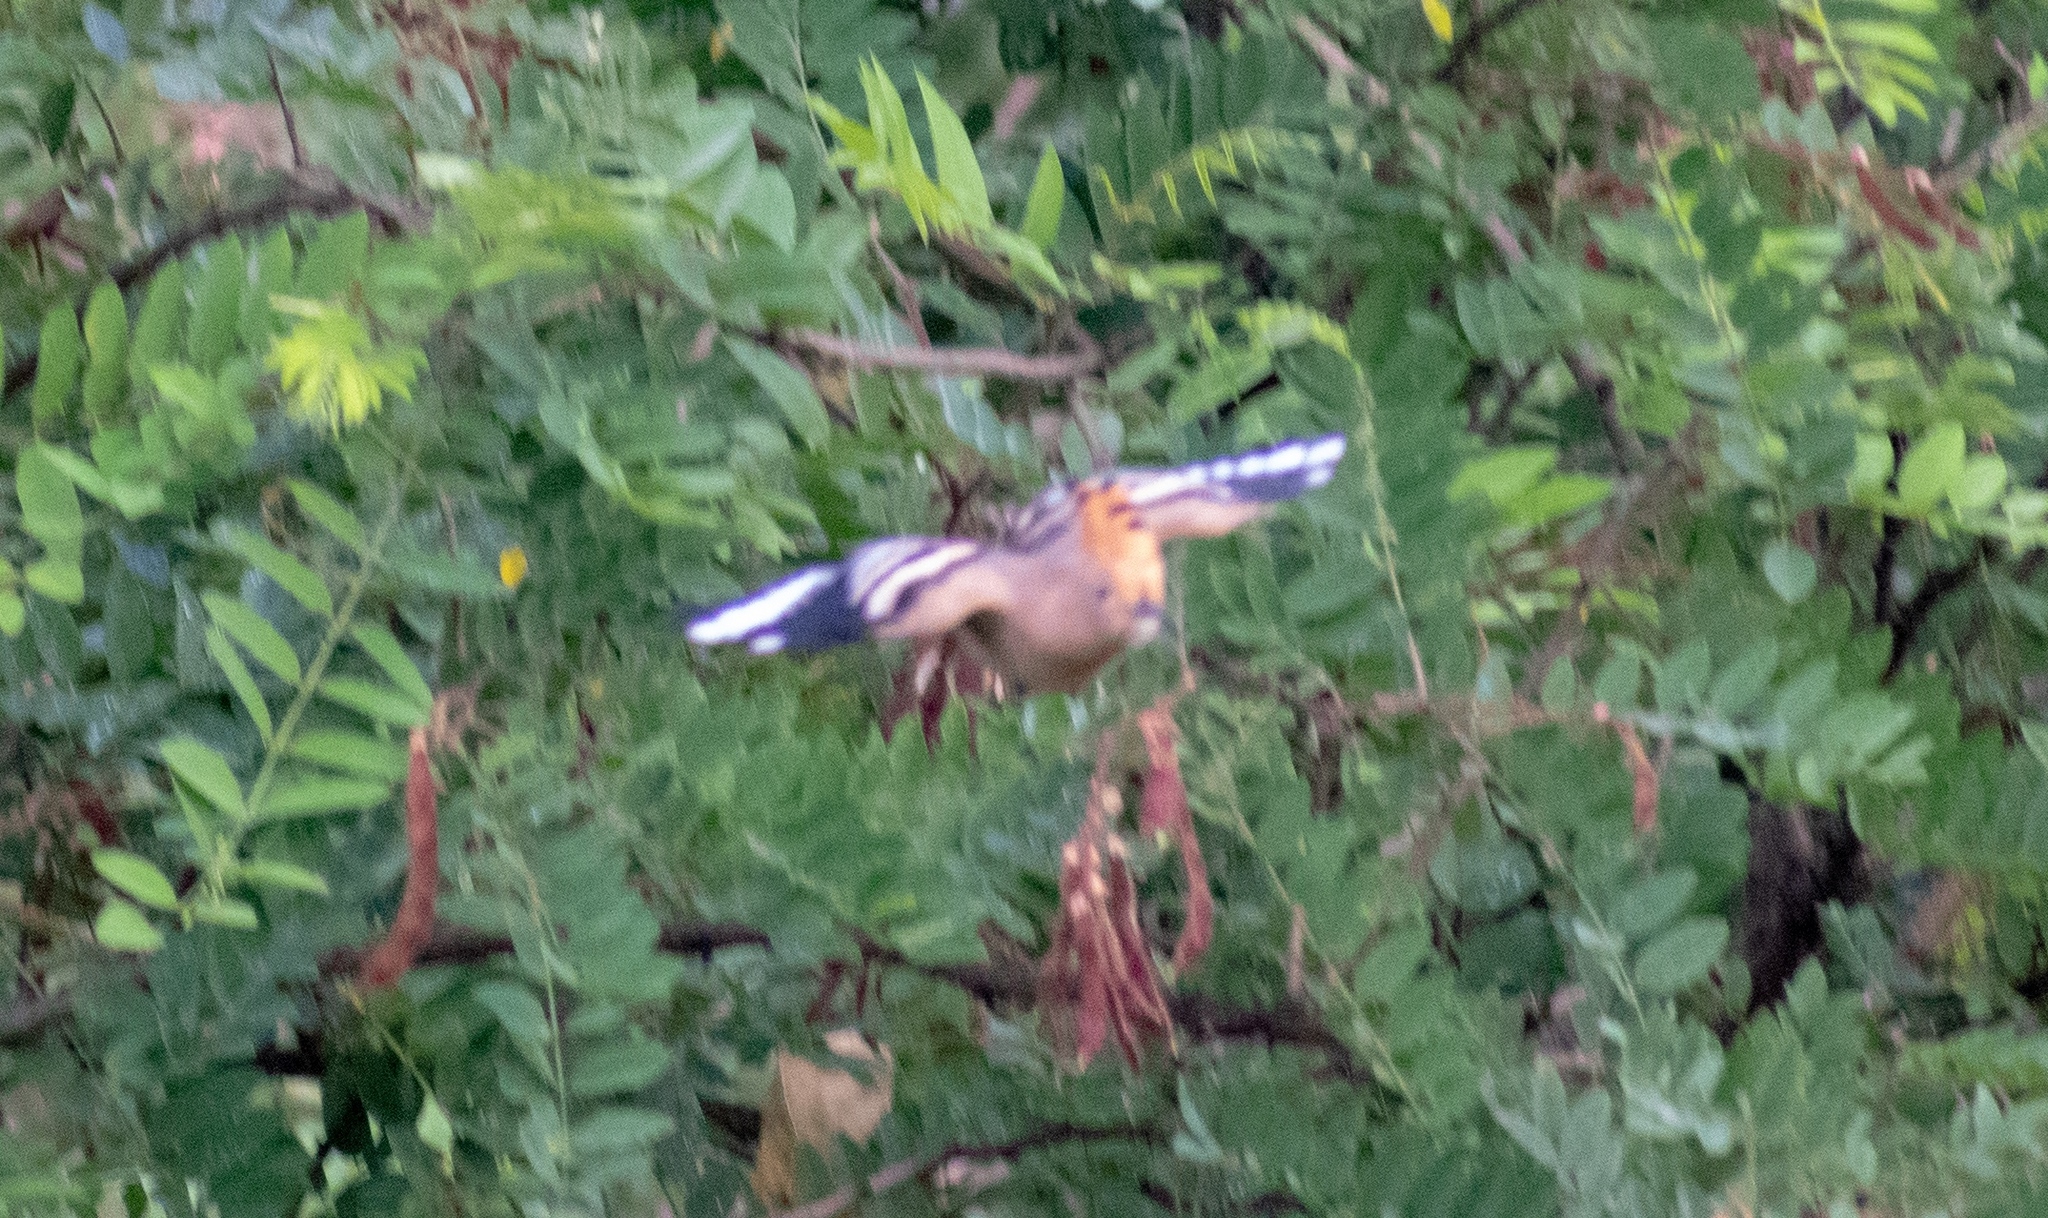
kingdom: Animalia
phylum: Chordata
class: Aves
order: Bucerotiformes
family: Upupidae
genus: Upupa
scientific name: Upupa epops
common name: Eurasian hoopoe
